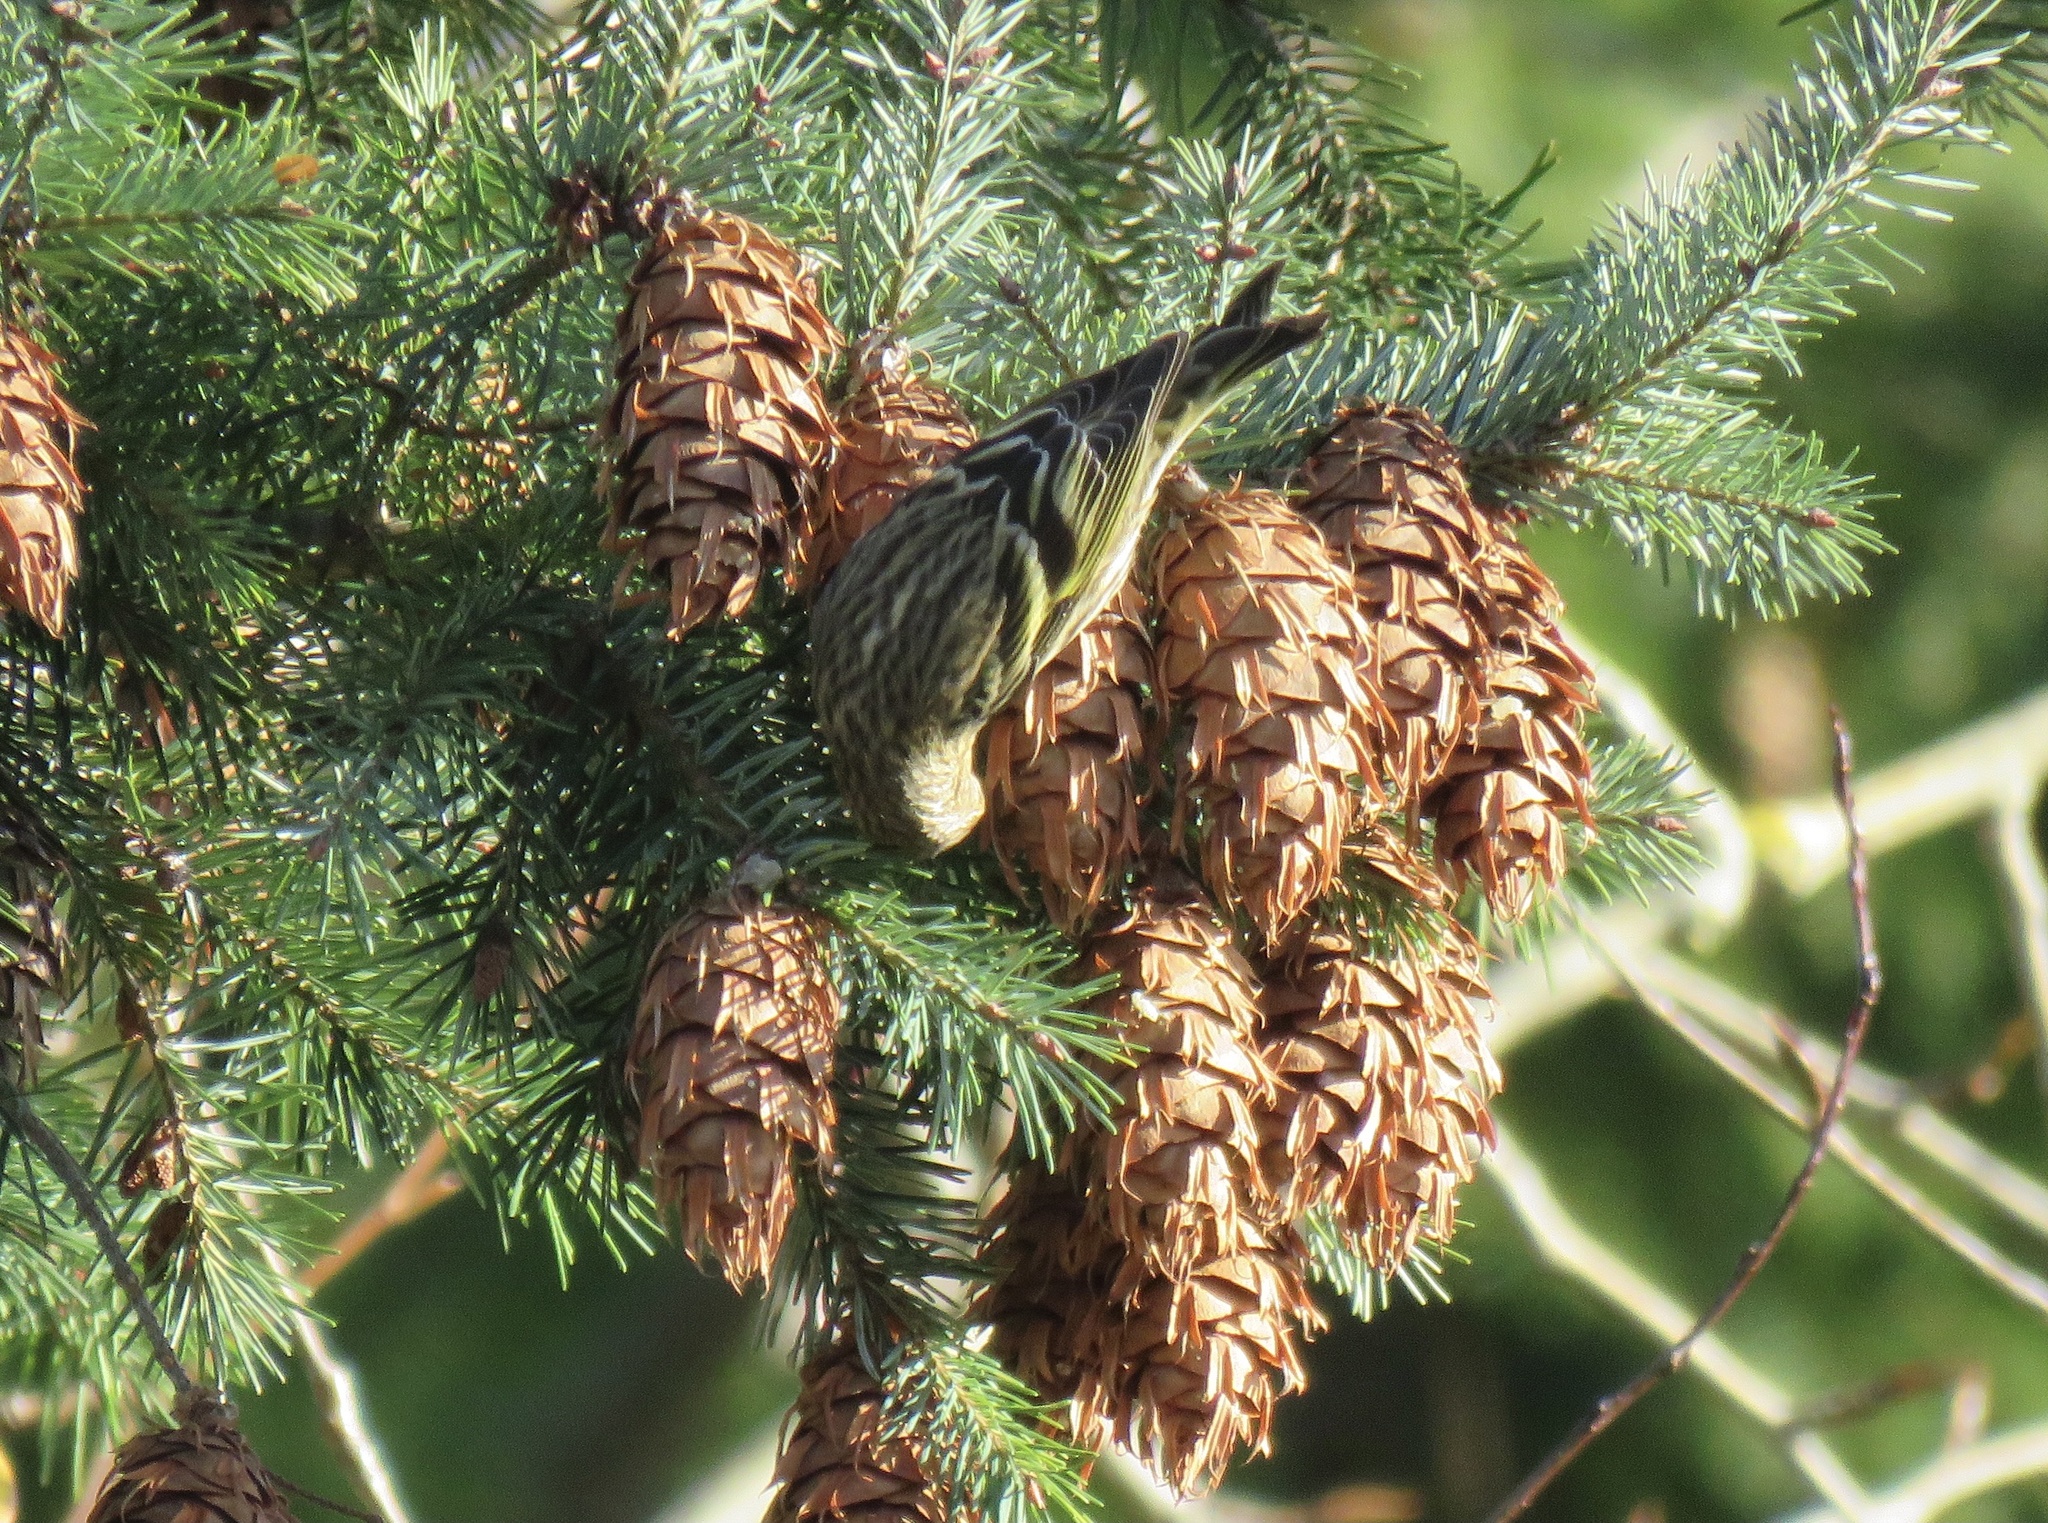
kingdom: Animalia
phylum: Chordata
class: Aves
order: Passeriformes
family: Fringillidae
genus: Spinus
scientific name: Spinus pinus
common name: Pine siskin
